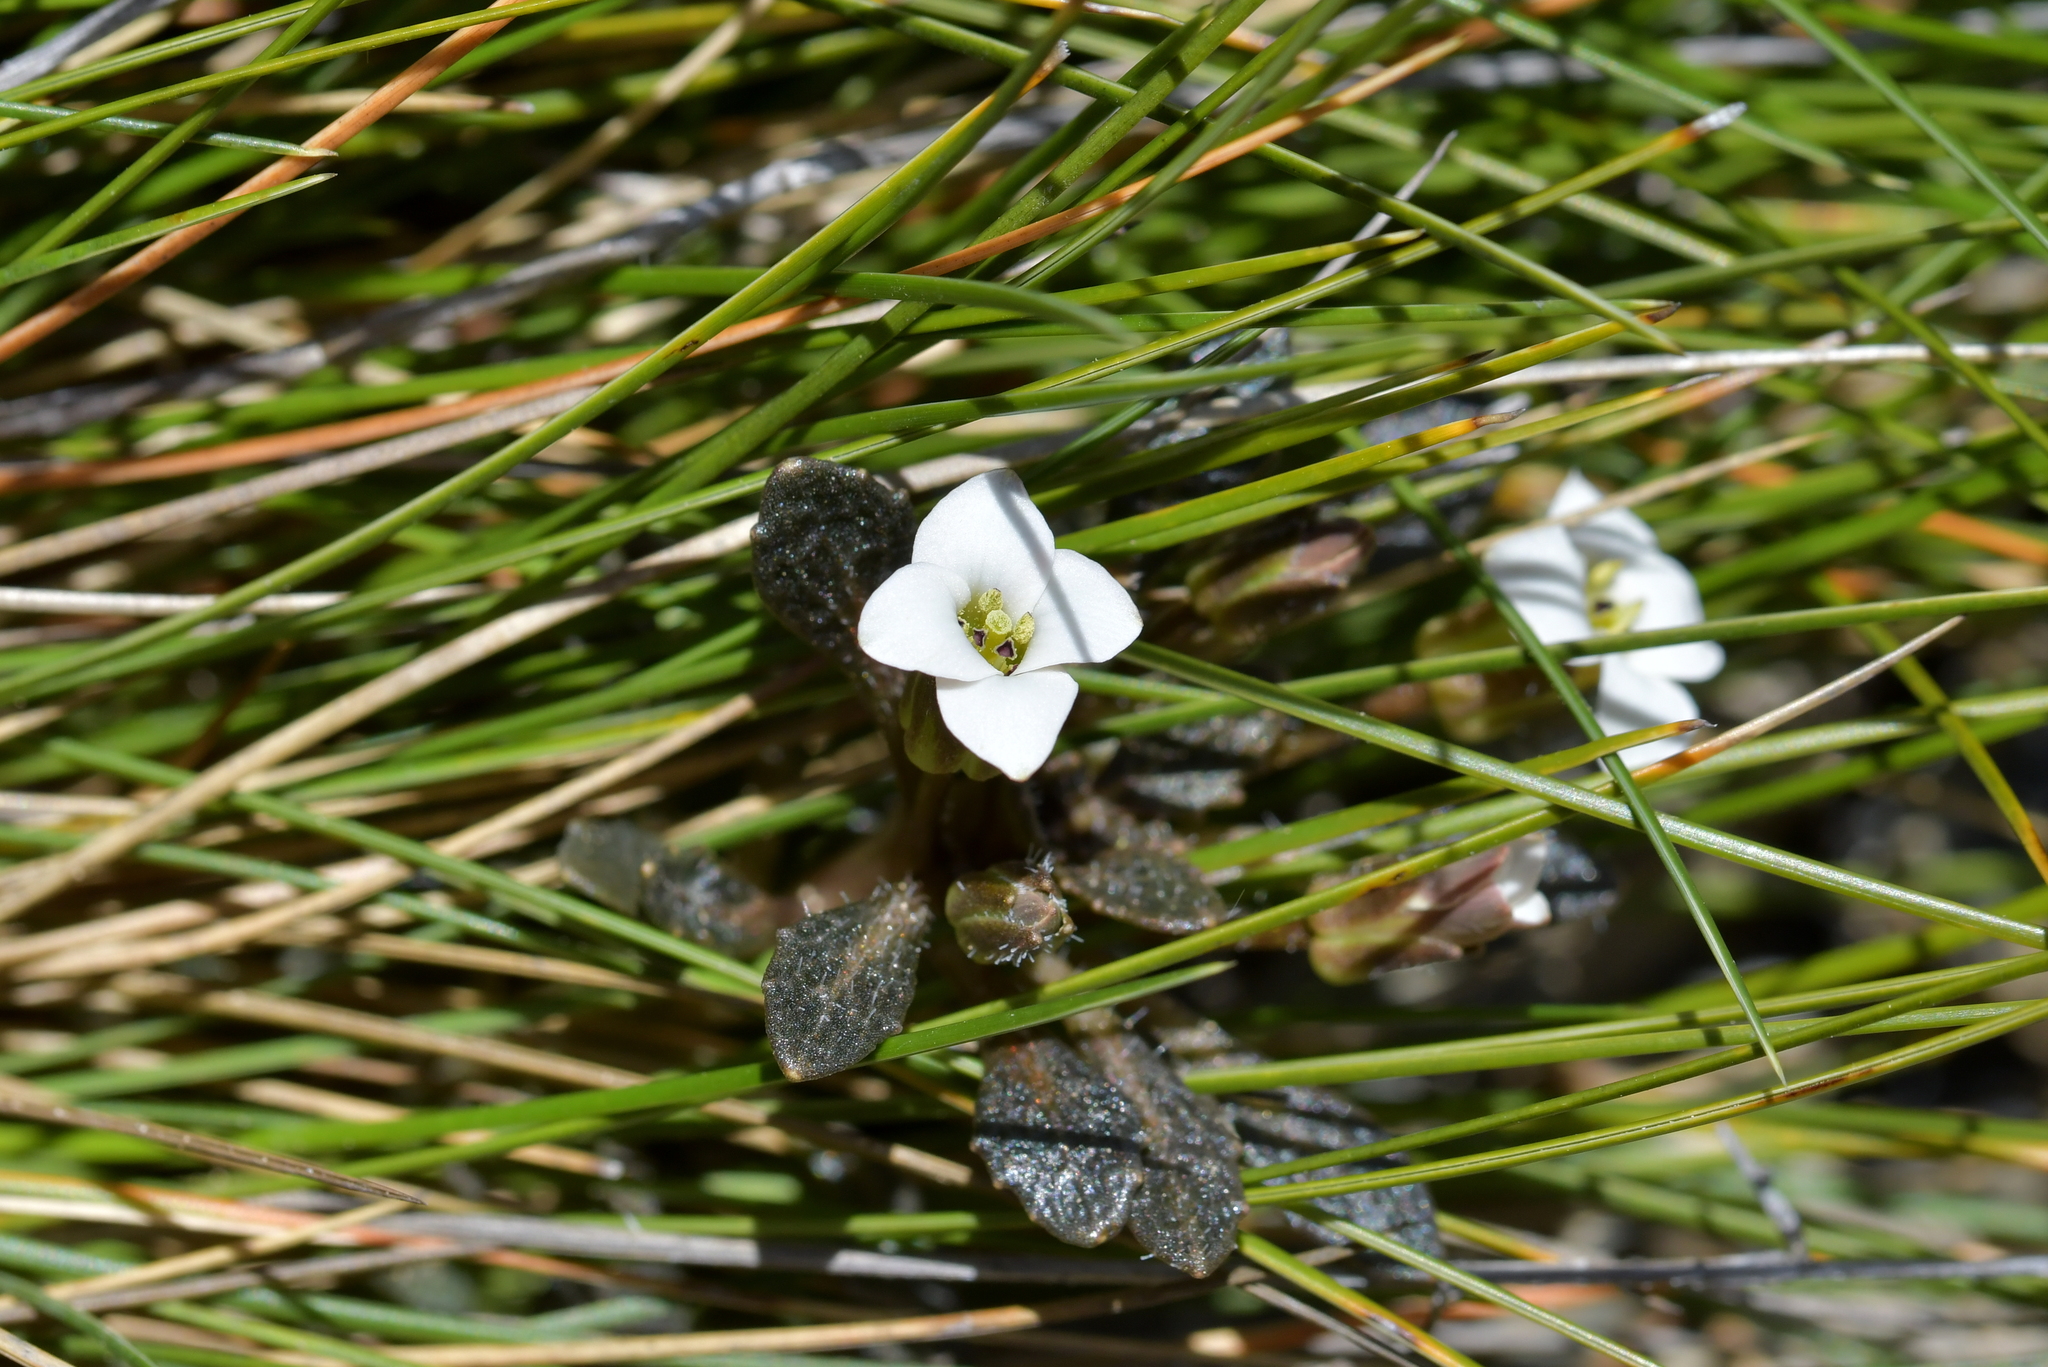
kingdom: Plantae
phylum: Tracheophyta
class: Magnoliopsida
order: Brassicales
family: Brassicaceae
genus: Notothlaspi
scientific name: Notothlaspi australe
